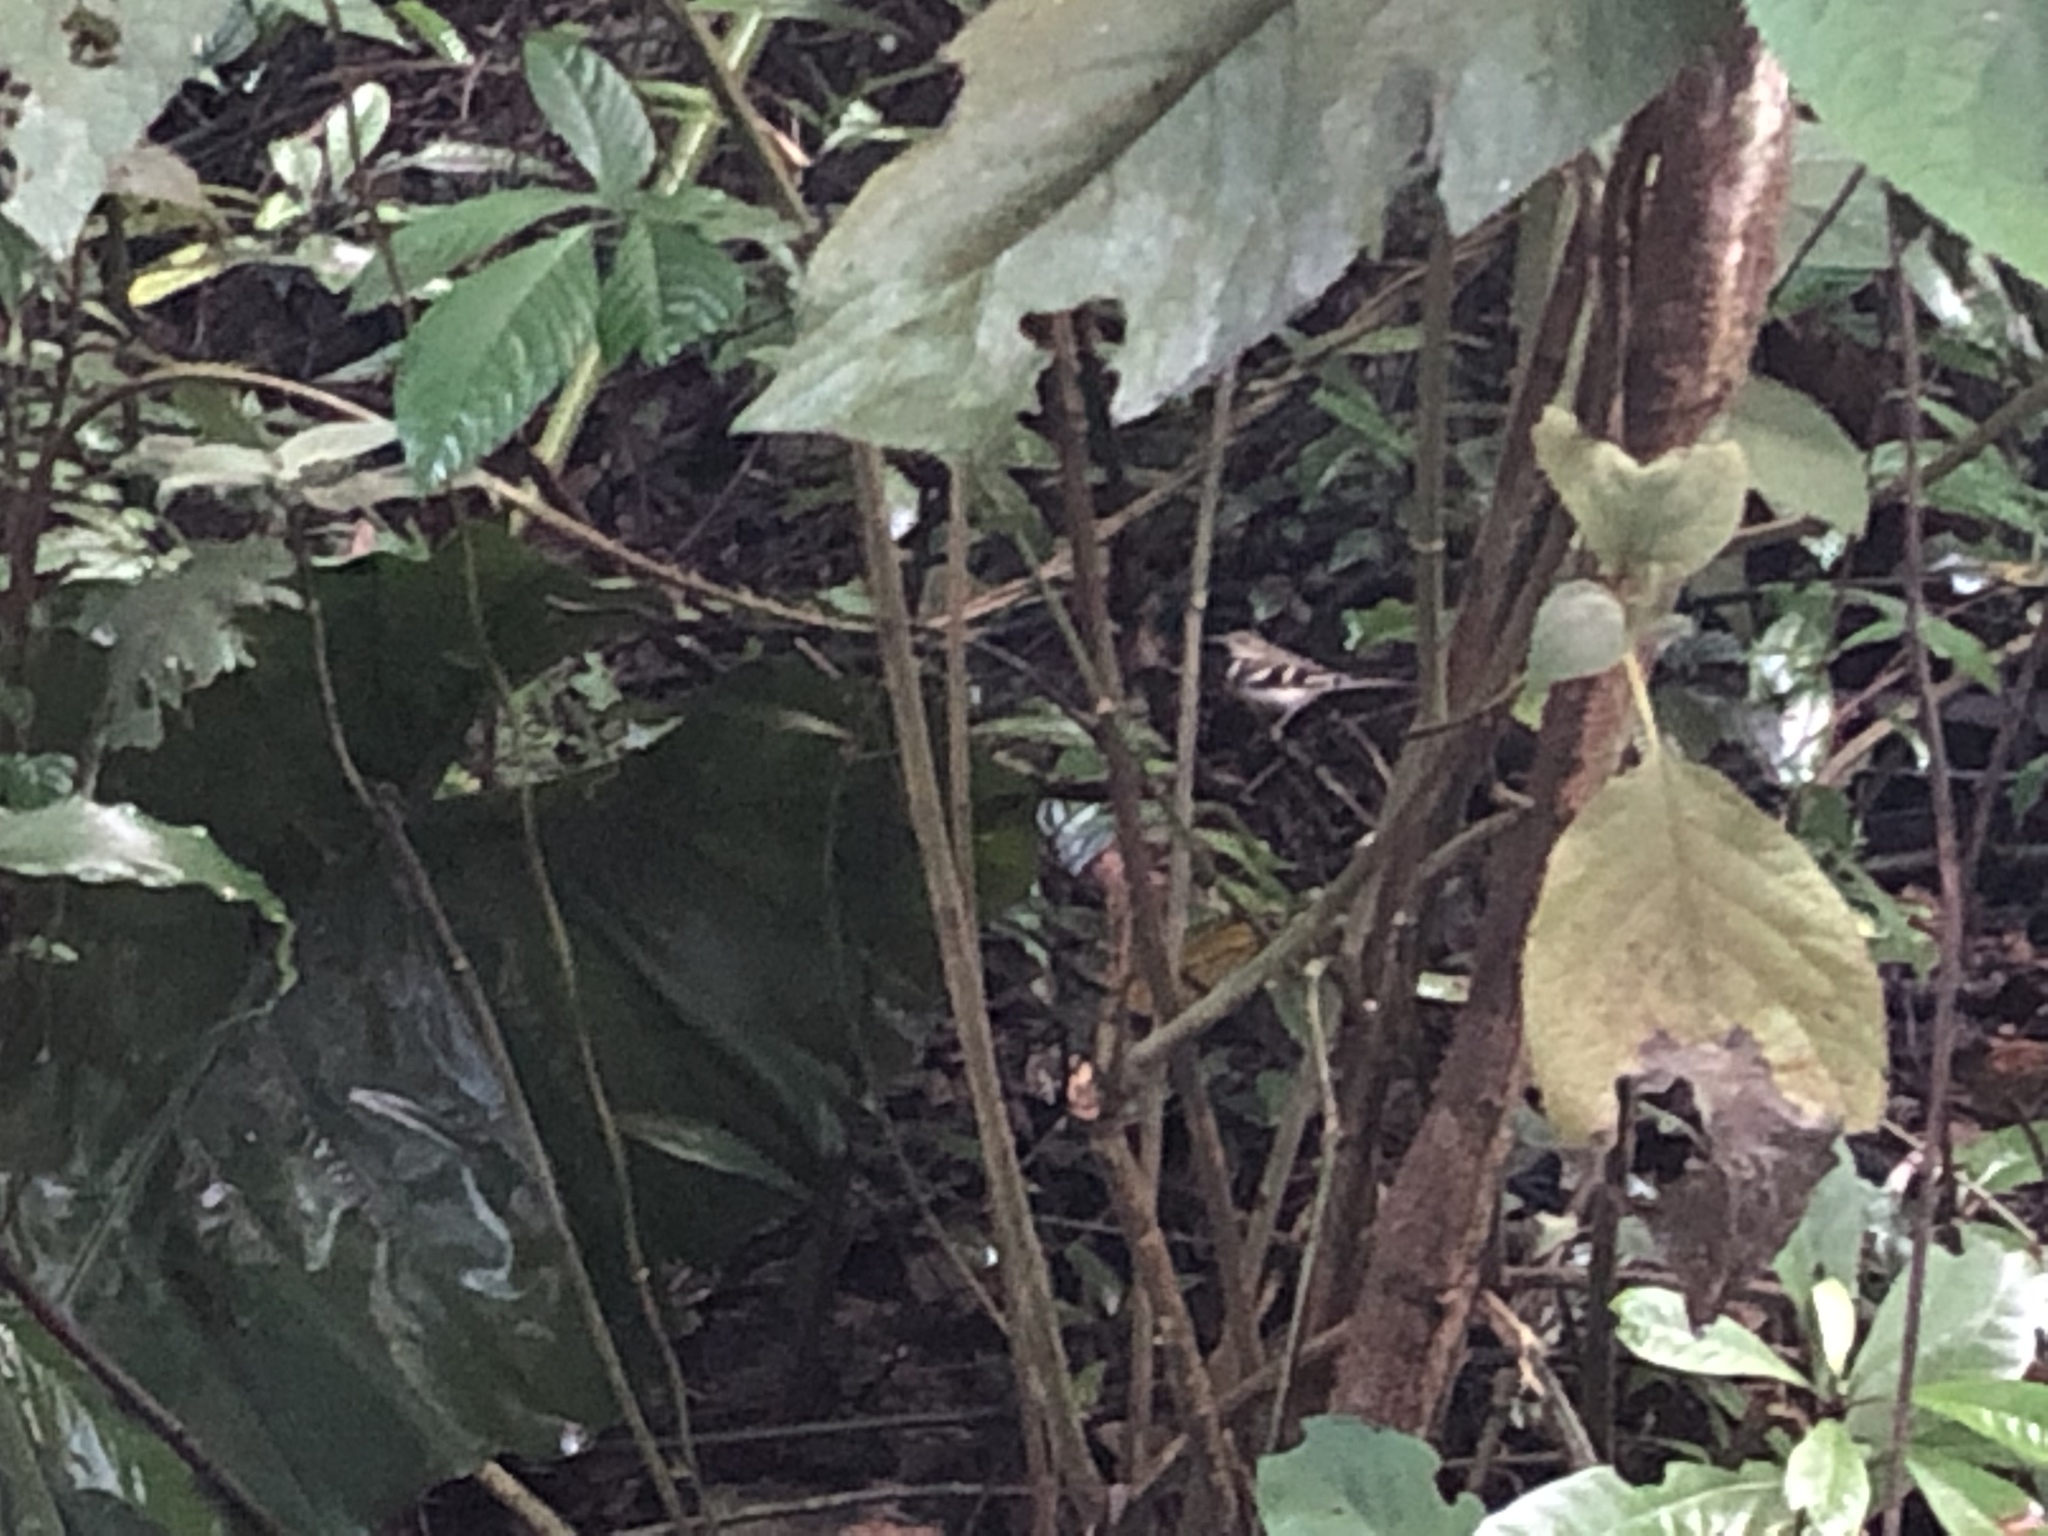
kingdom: Animalia
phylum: Chordata
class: Aves
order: Passeriformes
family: Motacillidae
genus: Dendronanthus
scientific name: Dendronanthus indicus
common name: Forest wagtail
